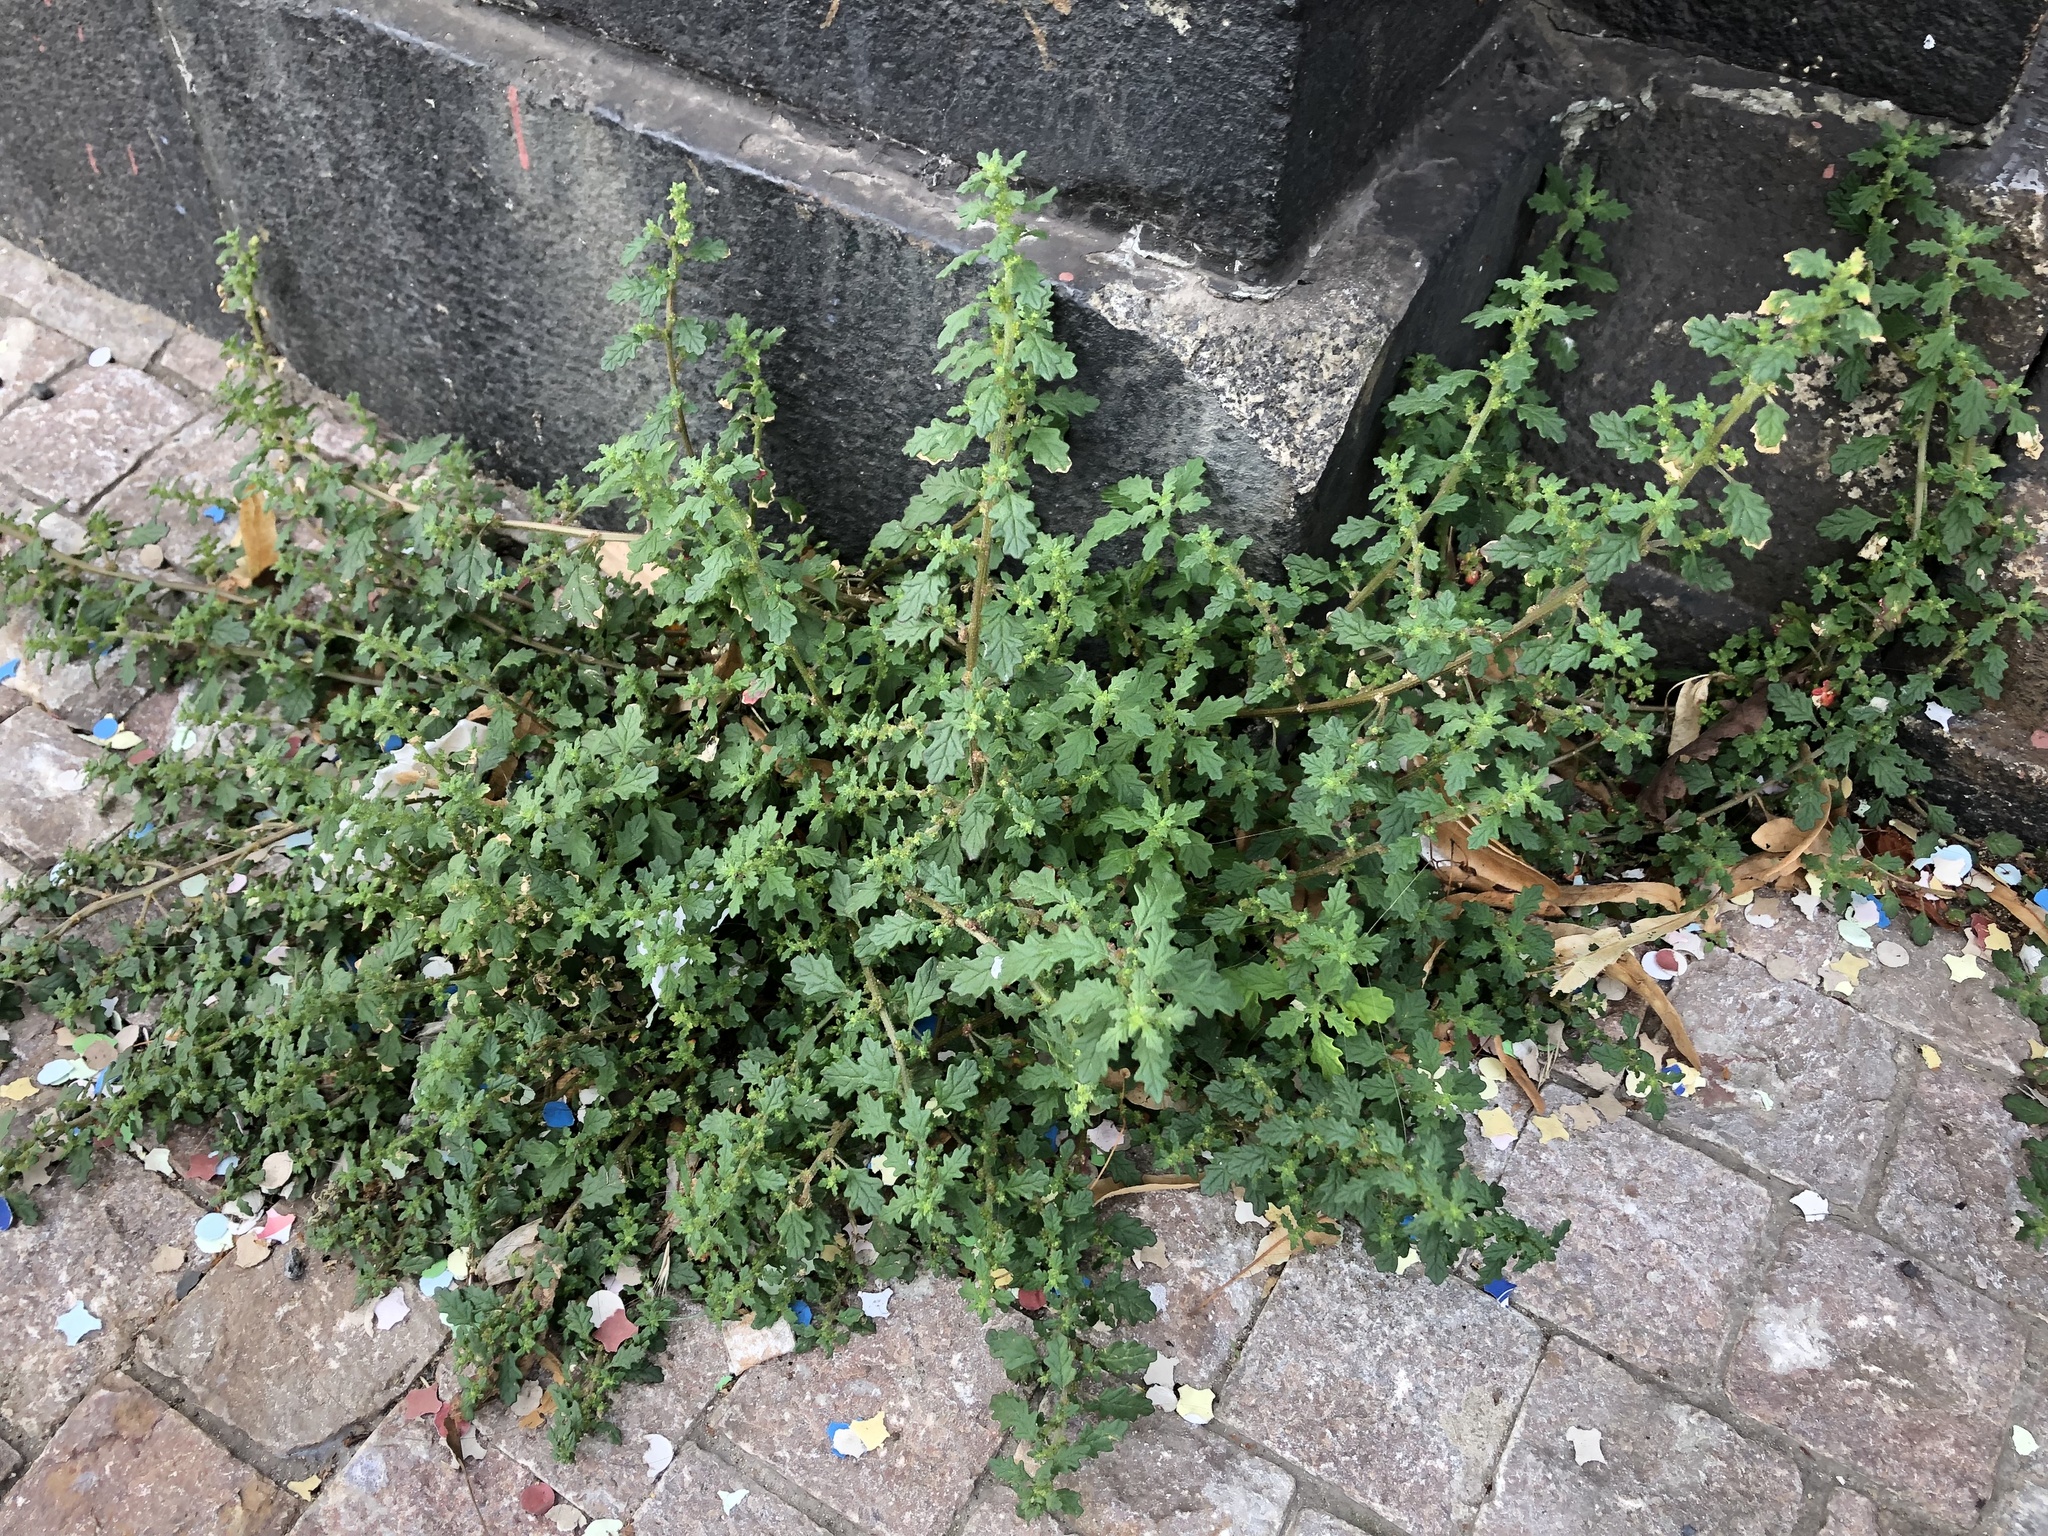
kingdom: Plantae
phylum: Tracheophyta
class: Magnoliopsida
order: Caryophyllales
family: Amaranthaceae
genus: Dysphania
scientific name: Dysphania pumilio
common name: Clammy goosefoot
